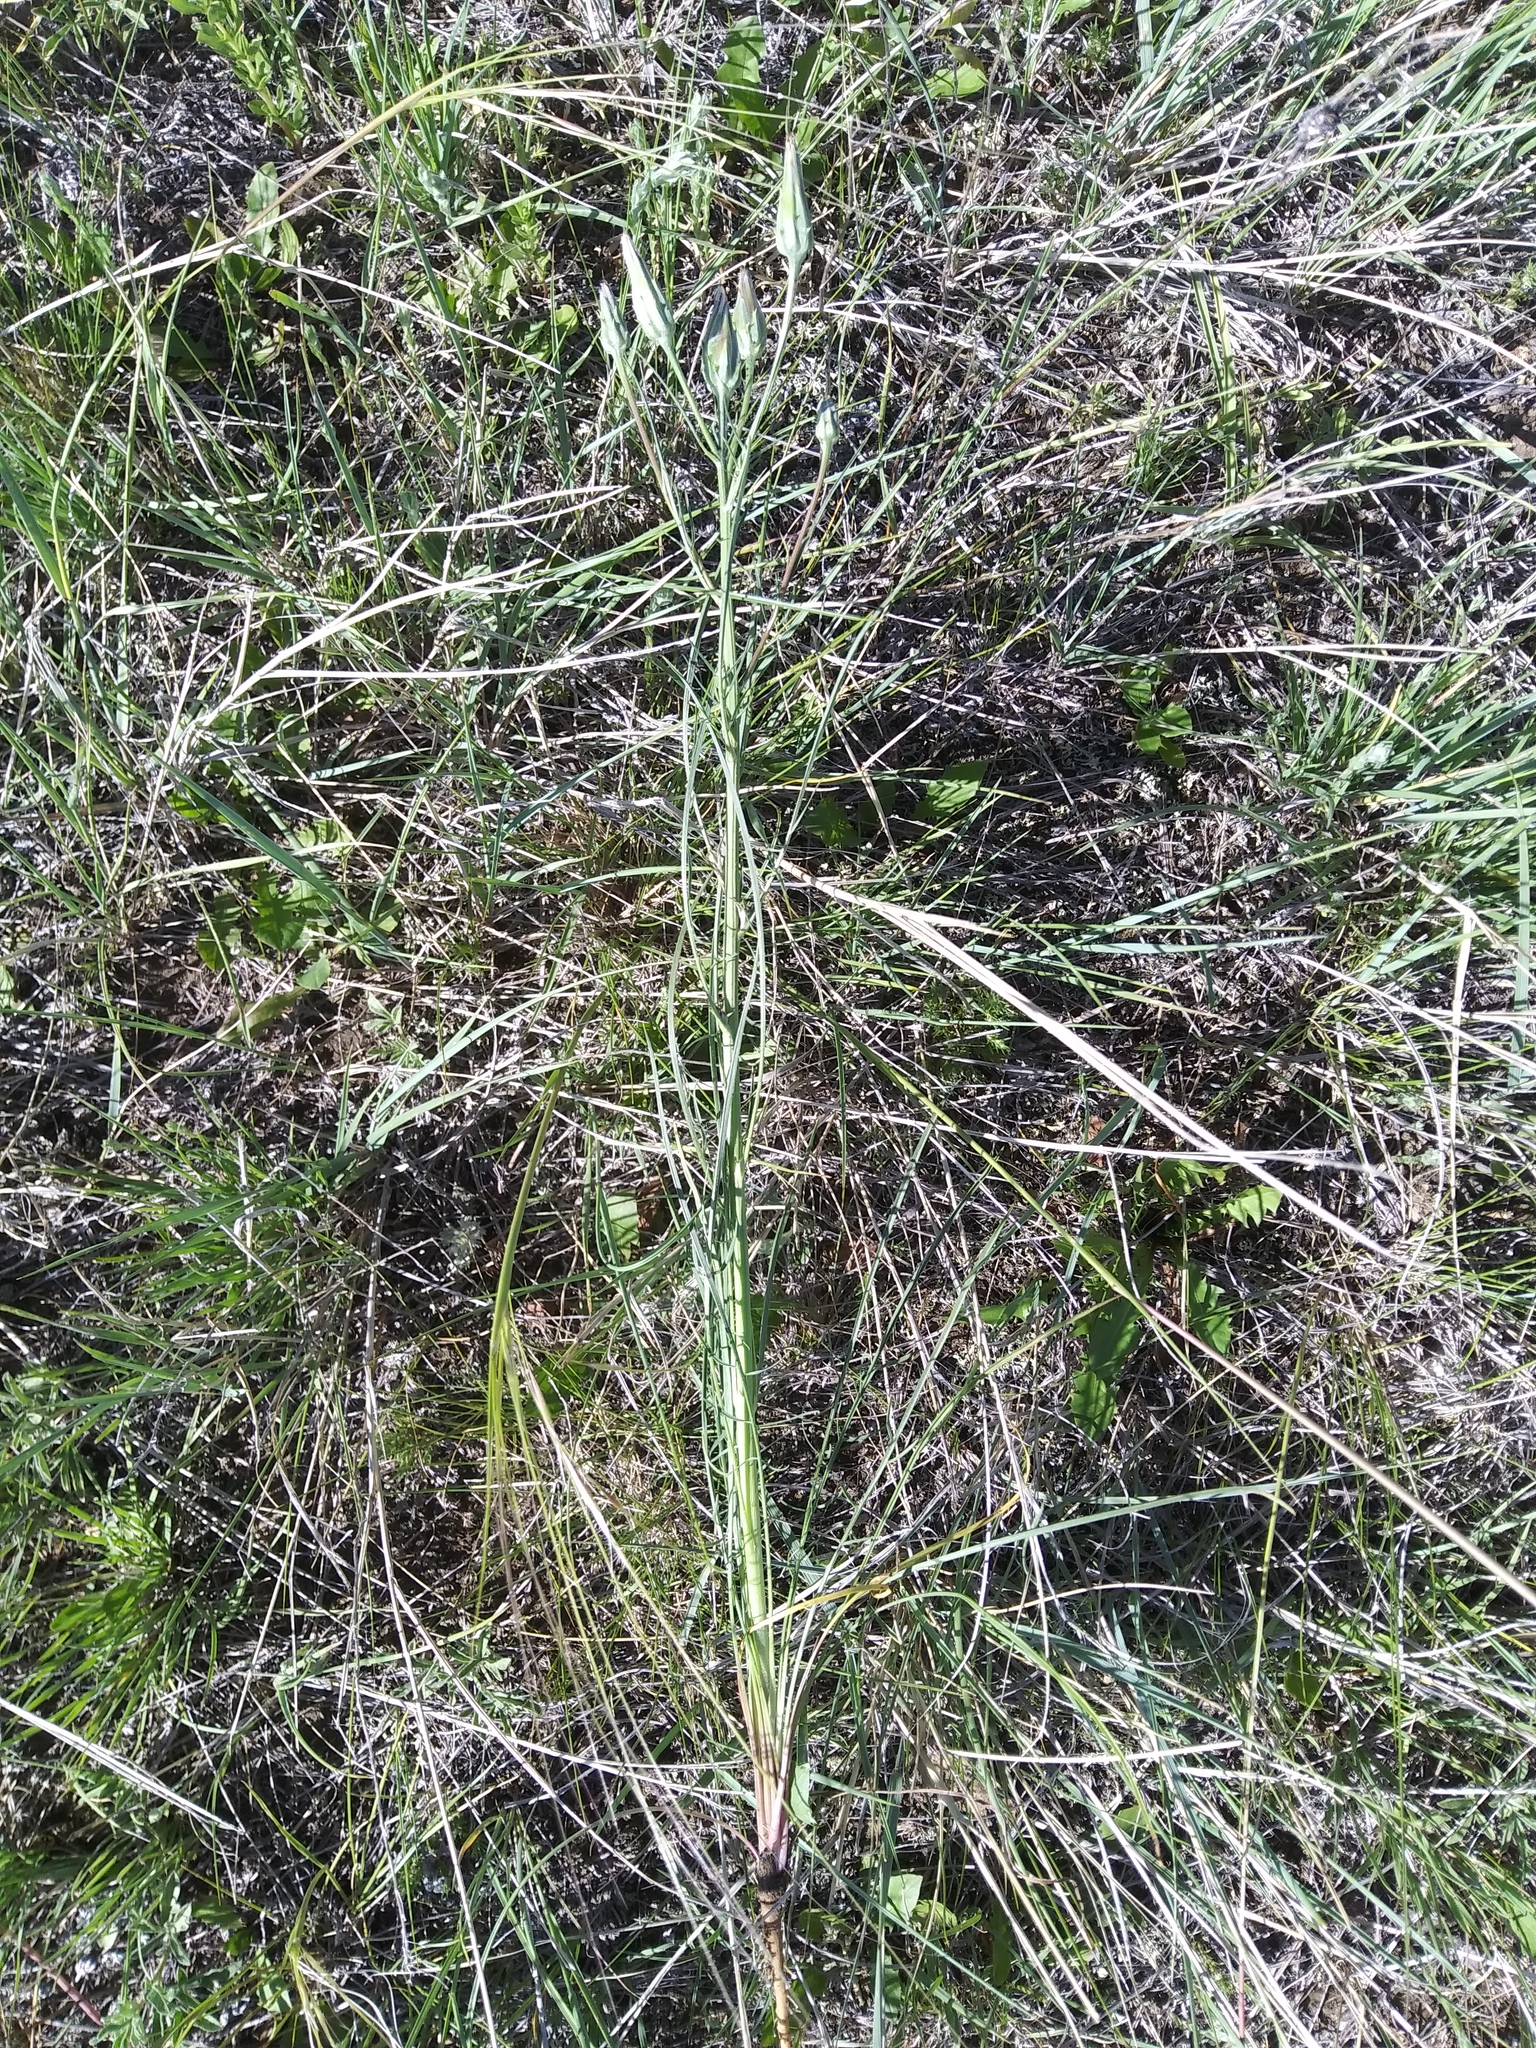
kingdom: Plantae
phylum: Tracheophyta
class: Magnoliopsida
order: Asterales
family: Asteraceae
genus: Scorzonera
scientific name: Scorzonera laciniata
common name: Cutleaf vipergrass
